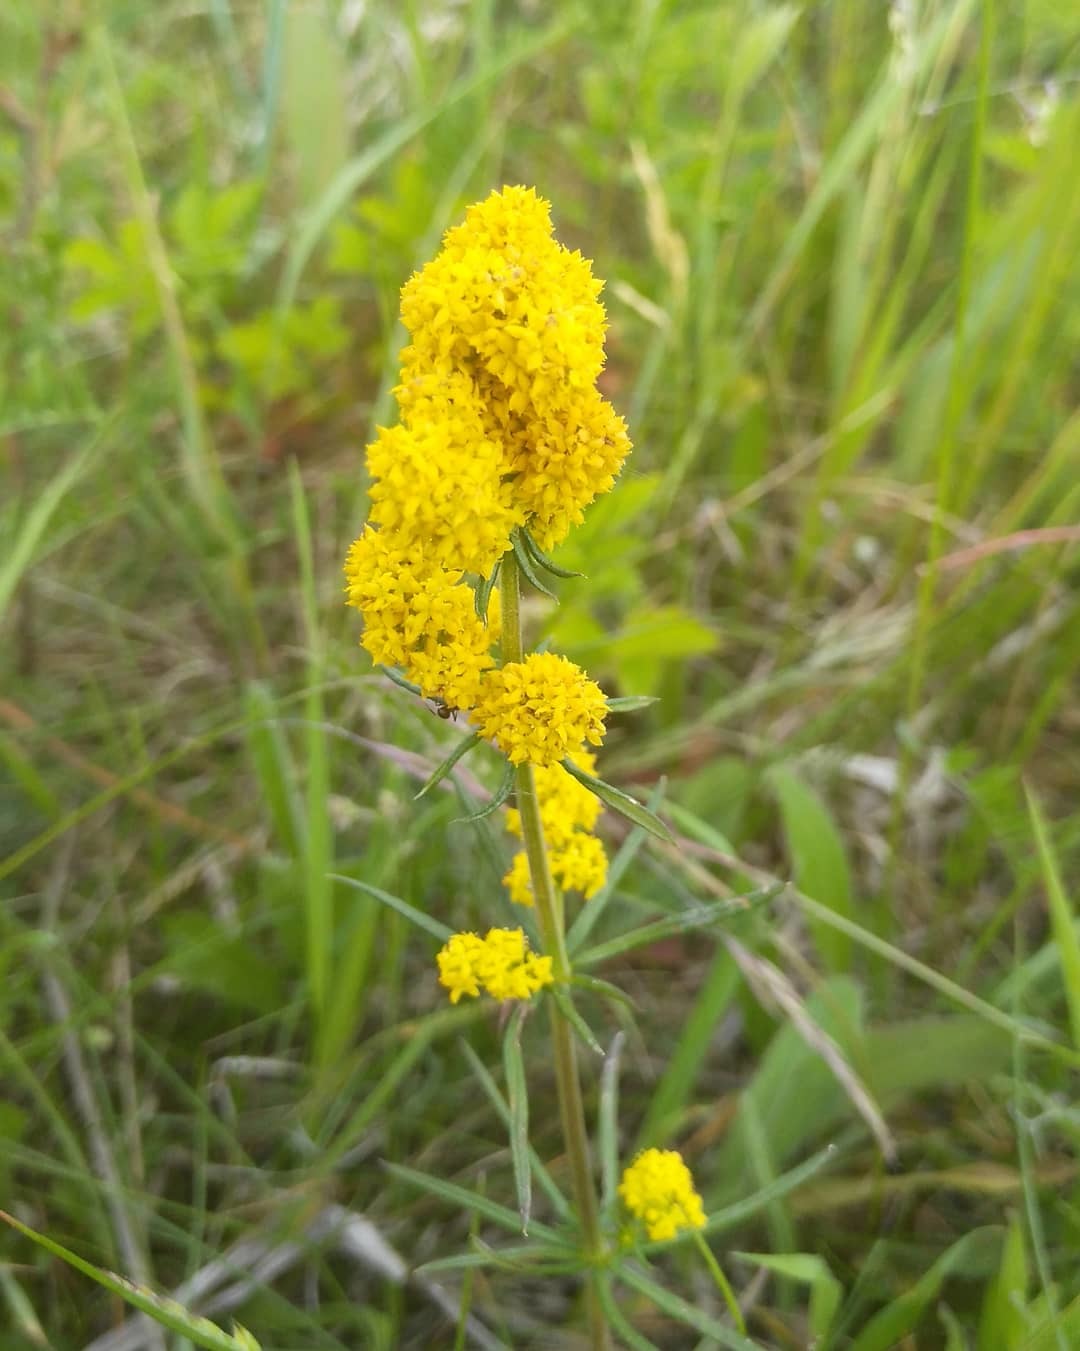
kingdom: Plantae
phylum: Tracheophyta
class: Magnoliopsida
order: Gentianales
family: Rubiaceae
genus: Galium
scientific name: Galium verum
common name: Lady's bedstraw
